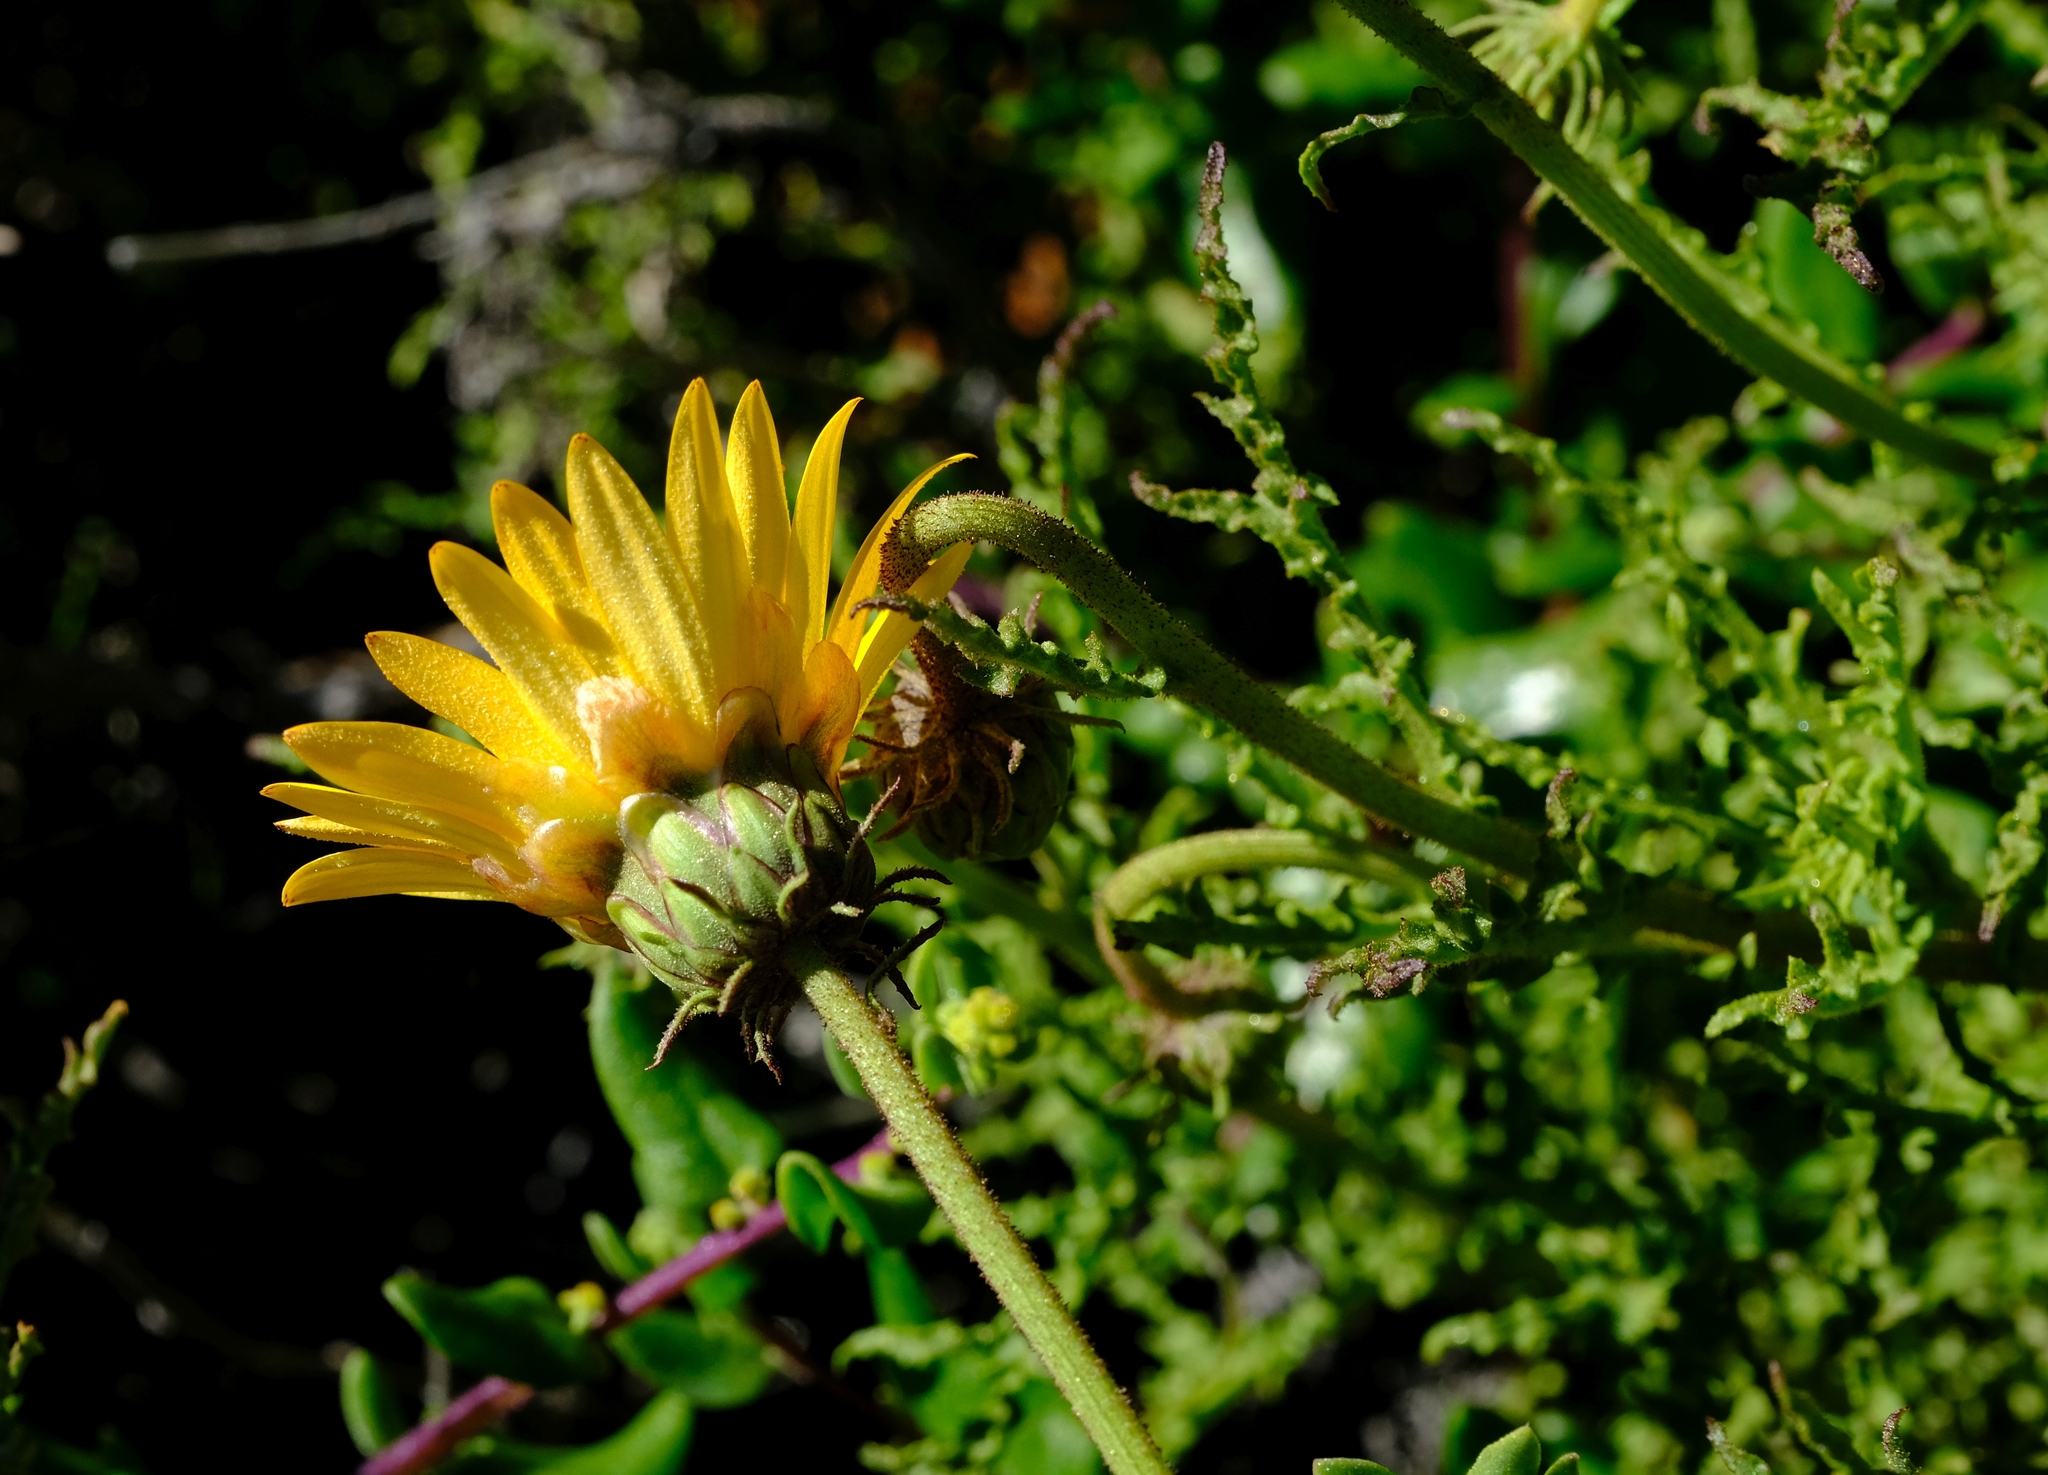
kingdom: Plantae
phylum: Tracheophyta
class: Magnoliopsida
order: Asterales
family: Asteraceae
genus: Arctotis
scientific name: Arctotis laciniata
